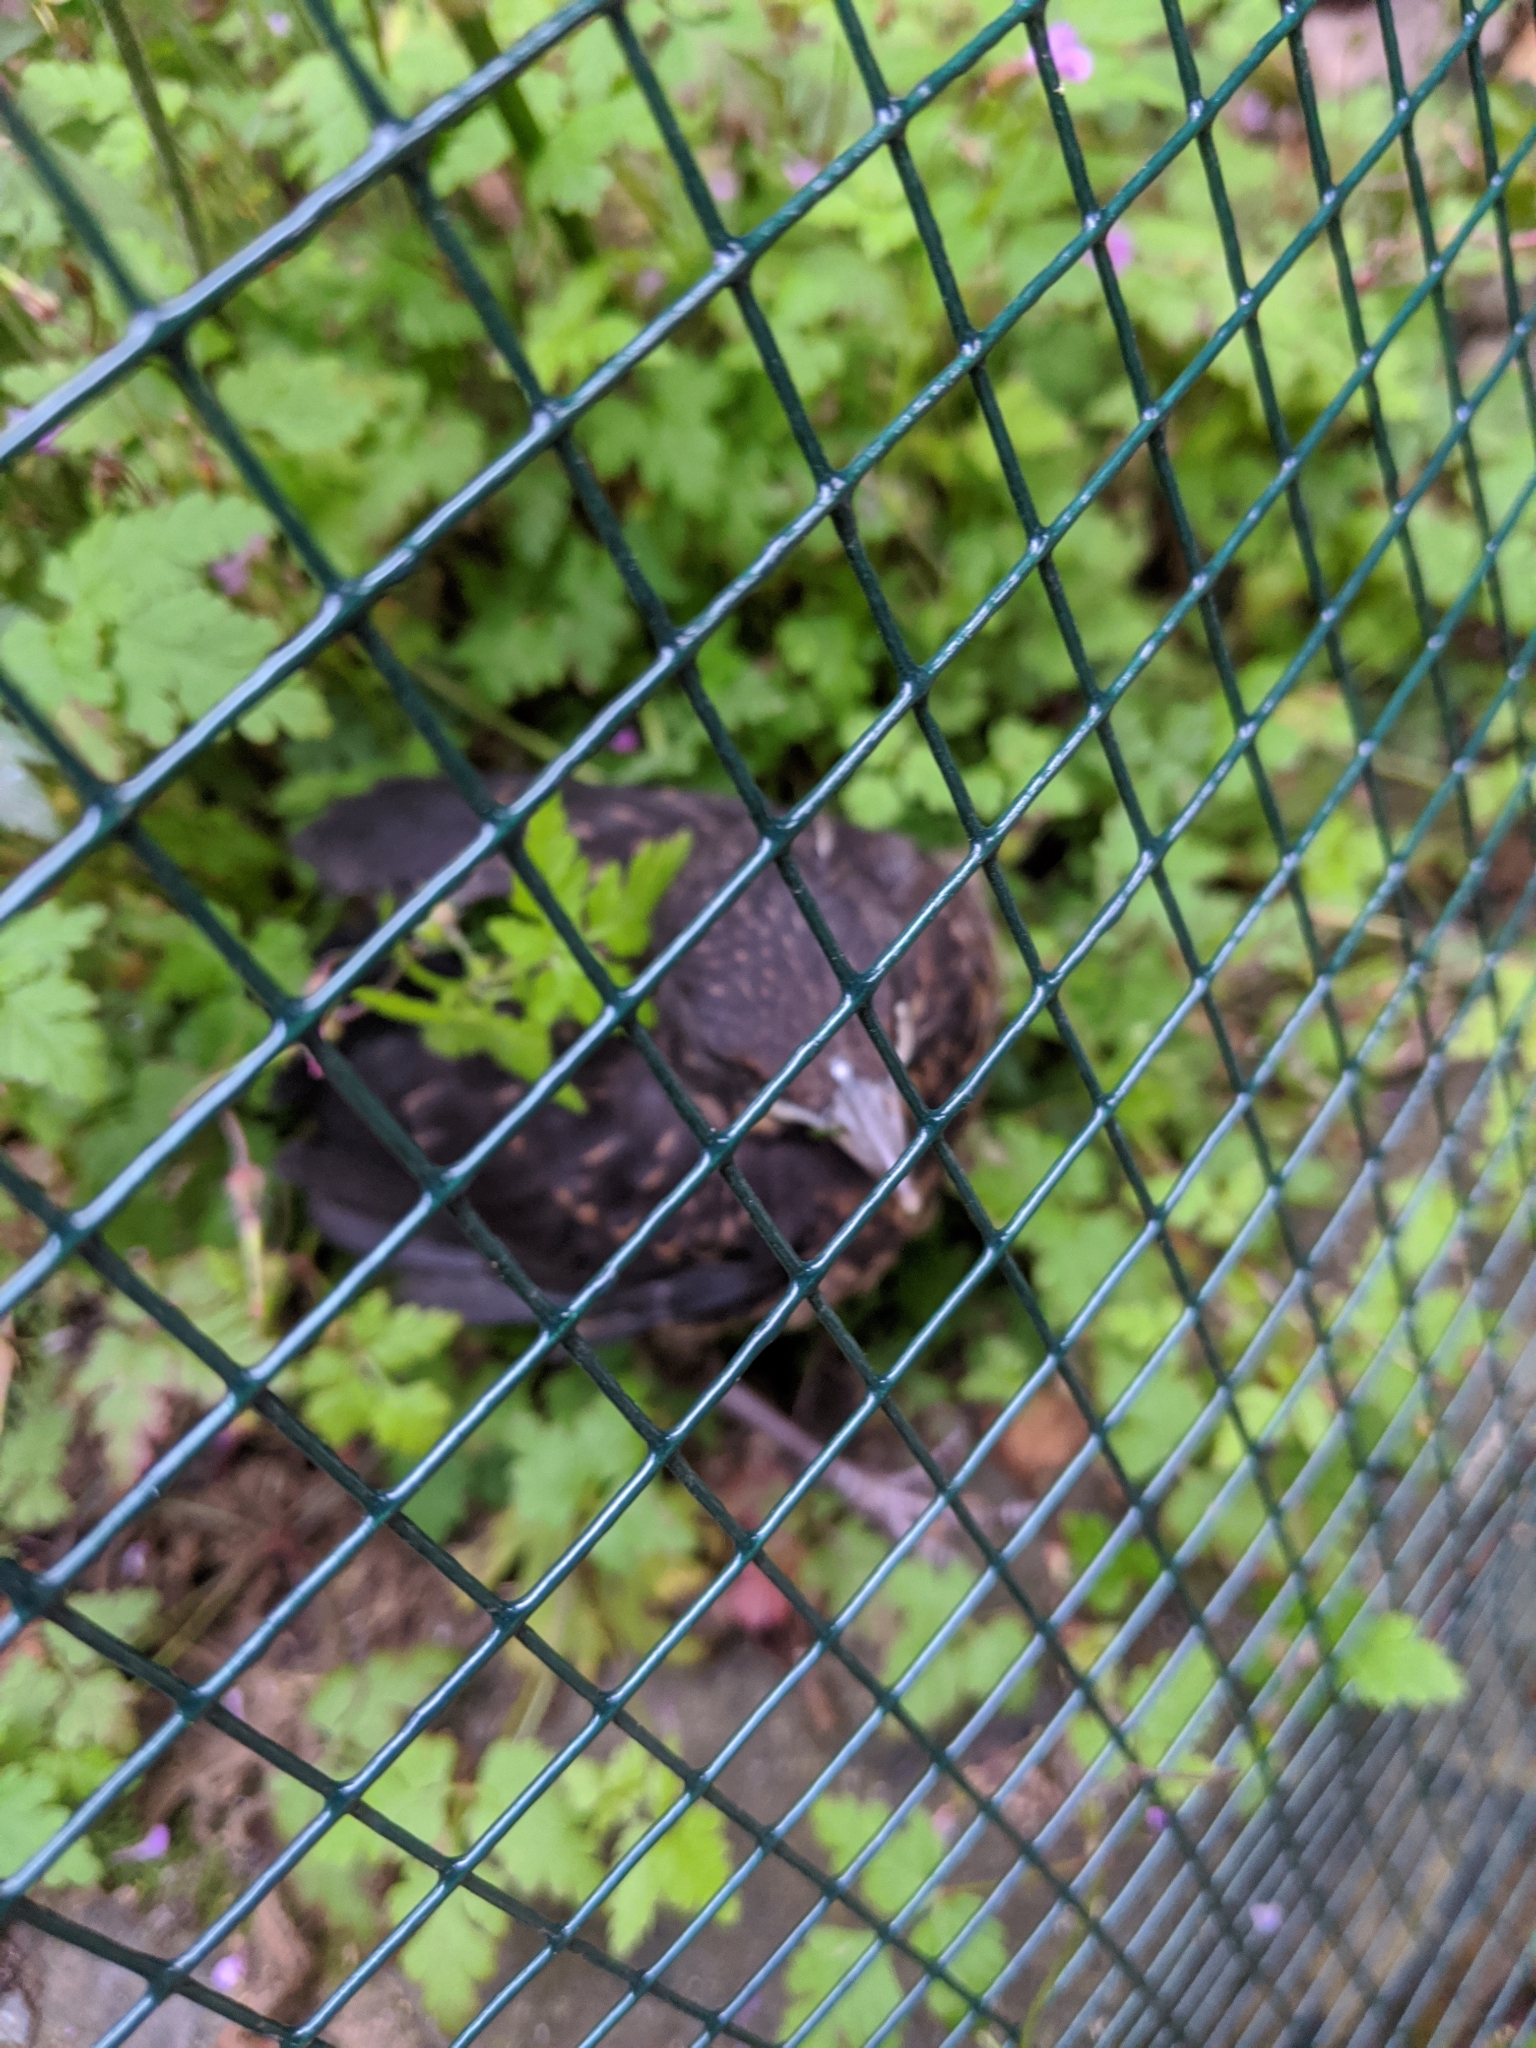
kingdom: Animalia
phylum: Chordata
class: Aves
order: Passeriformes
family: Turdidae
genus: Turdus
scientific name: Turdus merula
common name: Common blackbird
